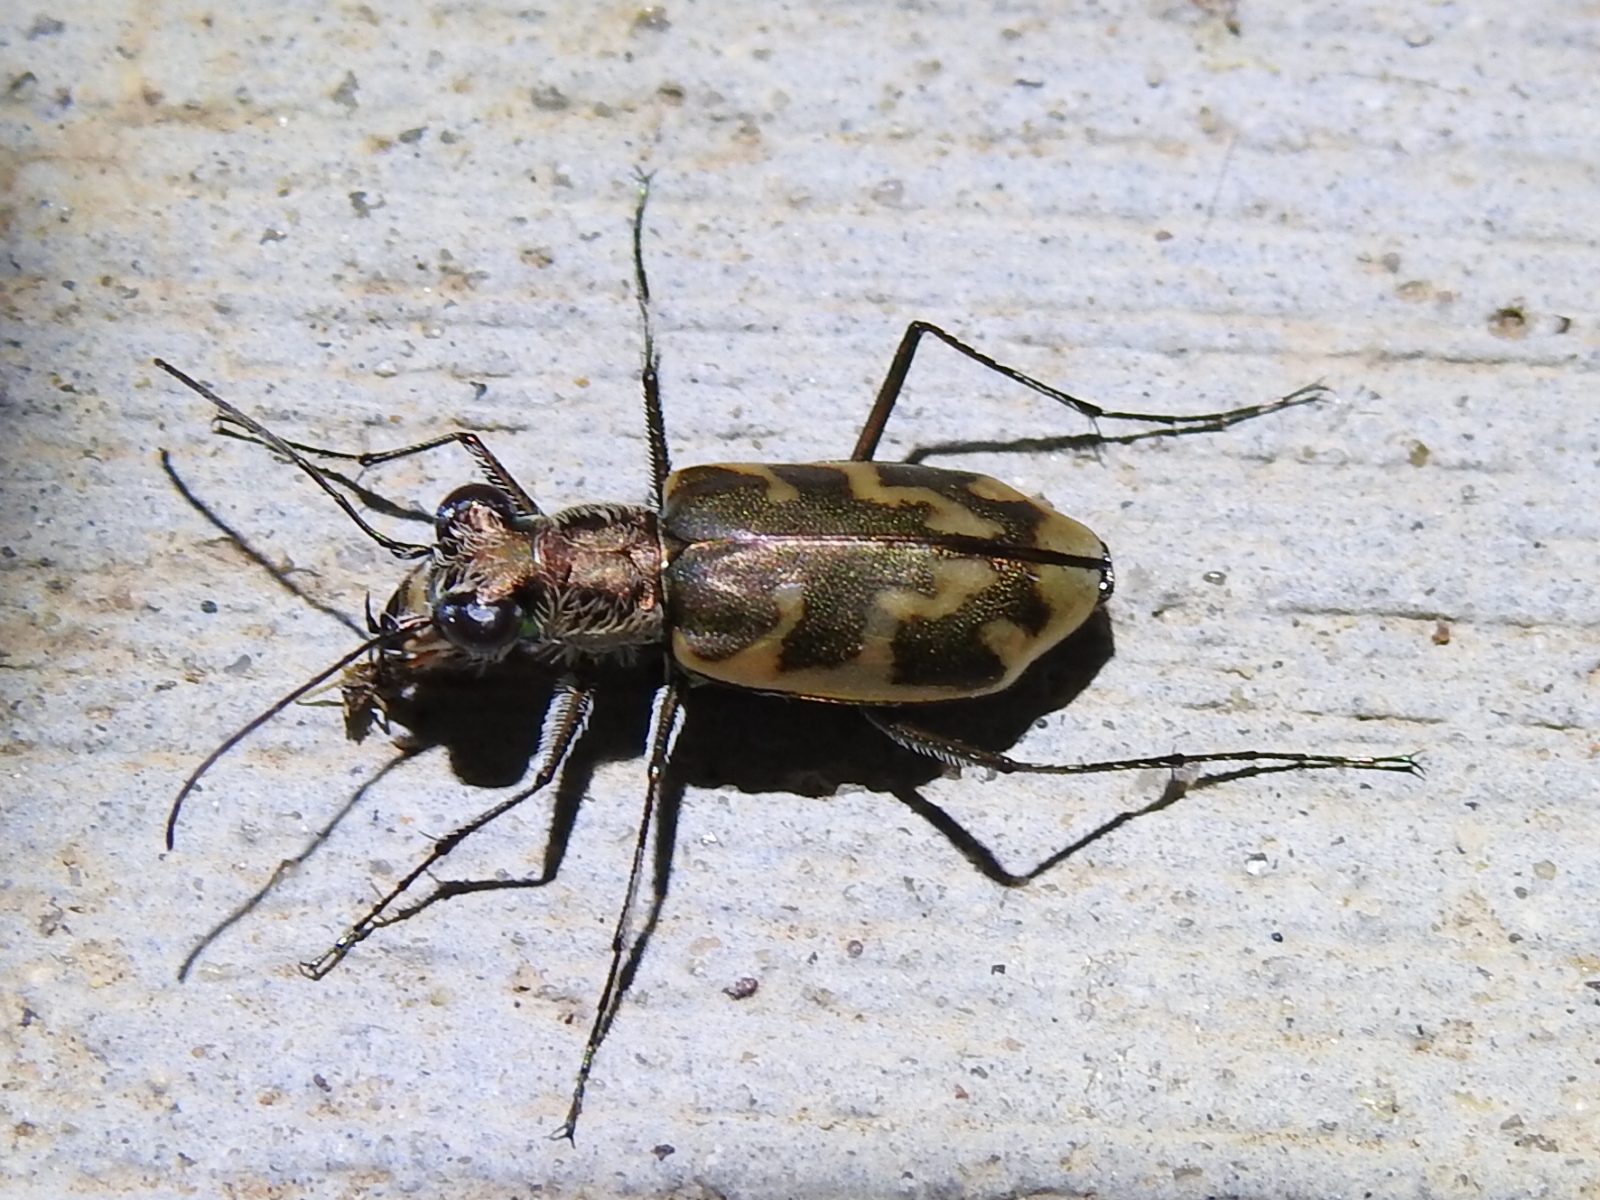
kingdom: Animalia
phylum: Arthropoda
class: Insecta
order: Coleoptera
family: Carabidae
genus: Ellipsoptera
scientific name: Ellipsoptera nevadica
